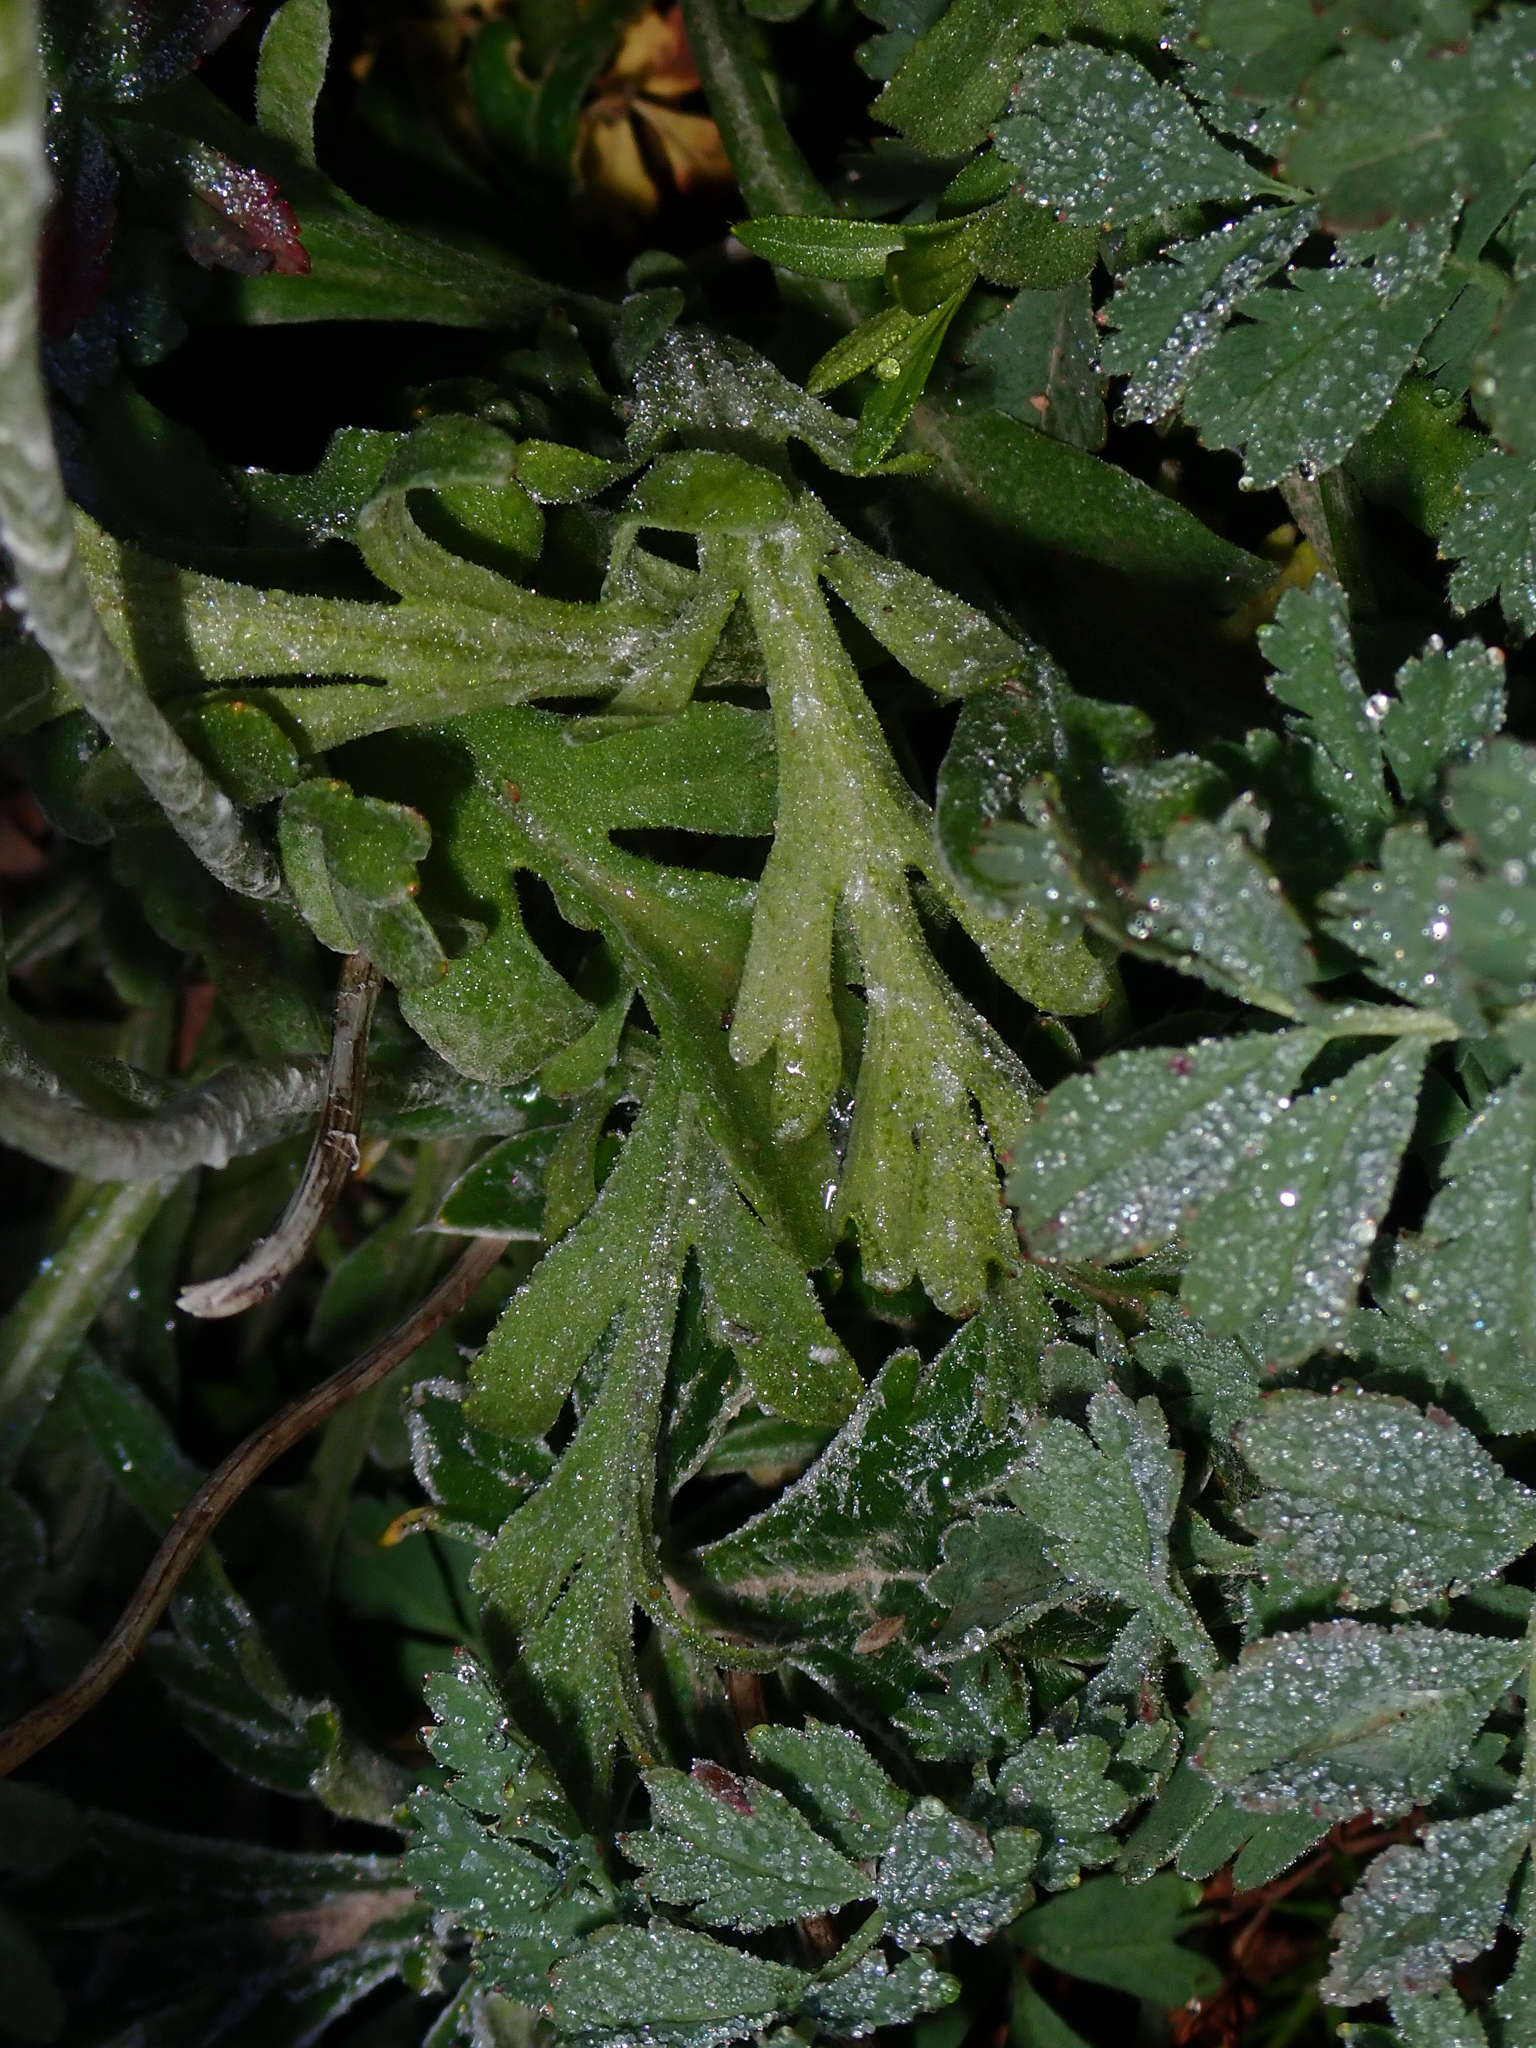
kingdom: Plantae
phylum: Tracheophyta
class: Magnoliopsida
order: Asterales
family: Asteraceae
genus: Leucheria
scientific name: Leucheria hahnii
